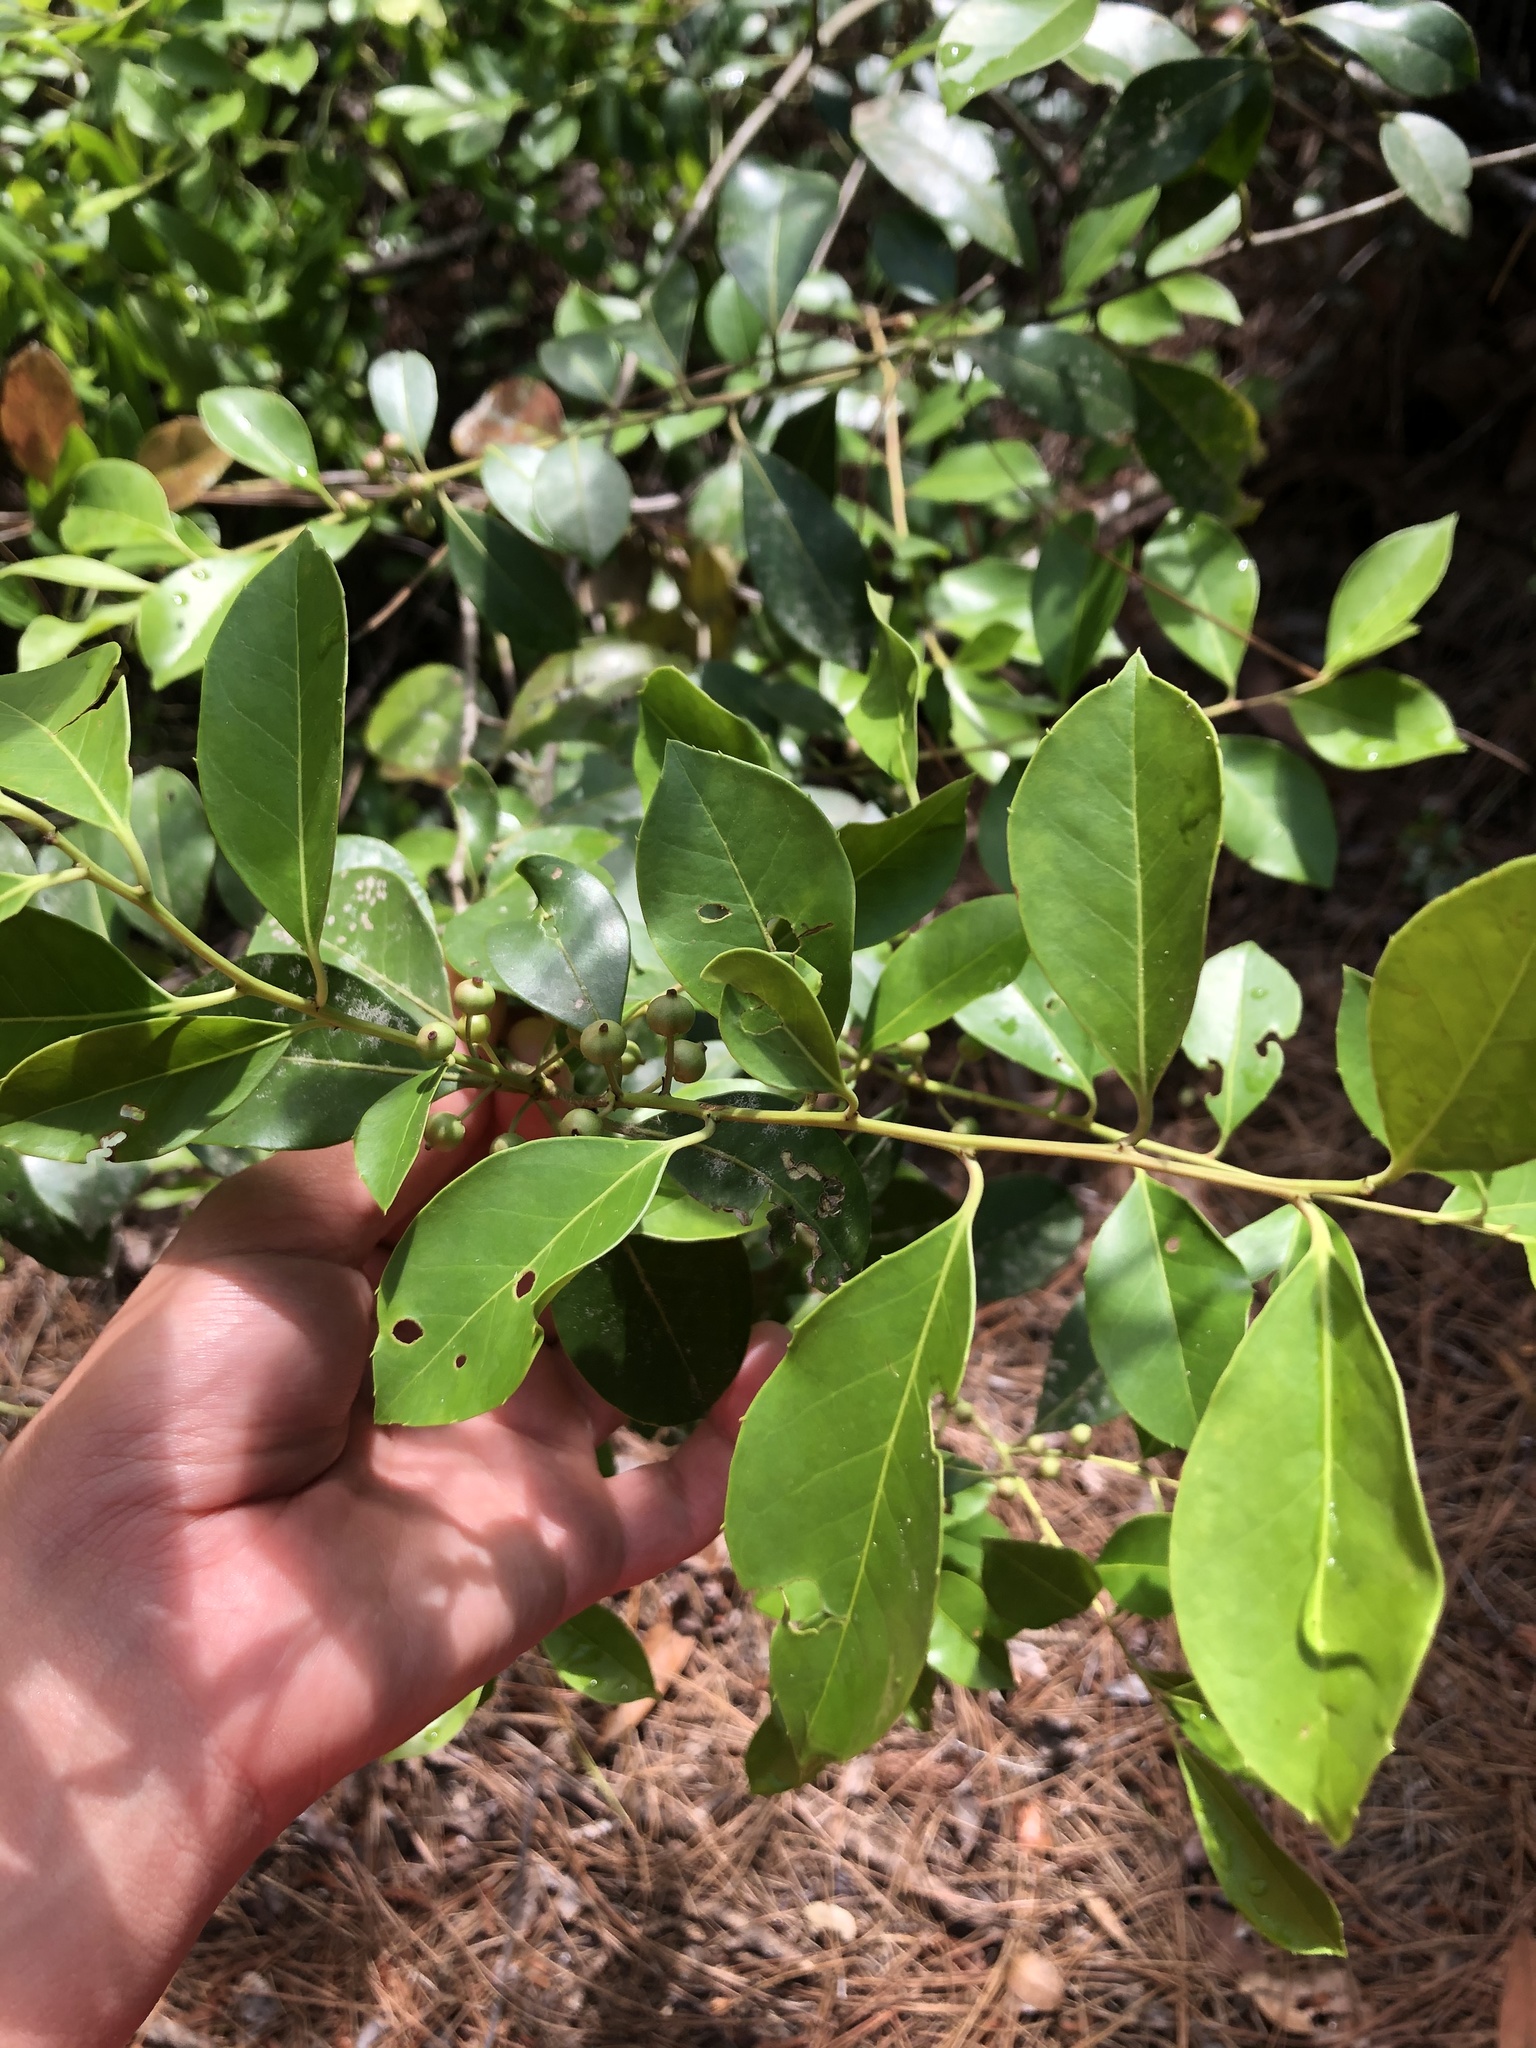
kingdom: Plantae
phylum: Tracheophyta
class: Magnoliopsida
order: Aquifoliales
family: Aquifoliaceae
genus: Ilex
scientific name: Ilex coriacea
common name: Sweet gallberry
